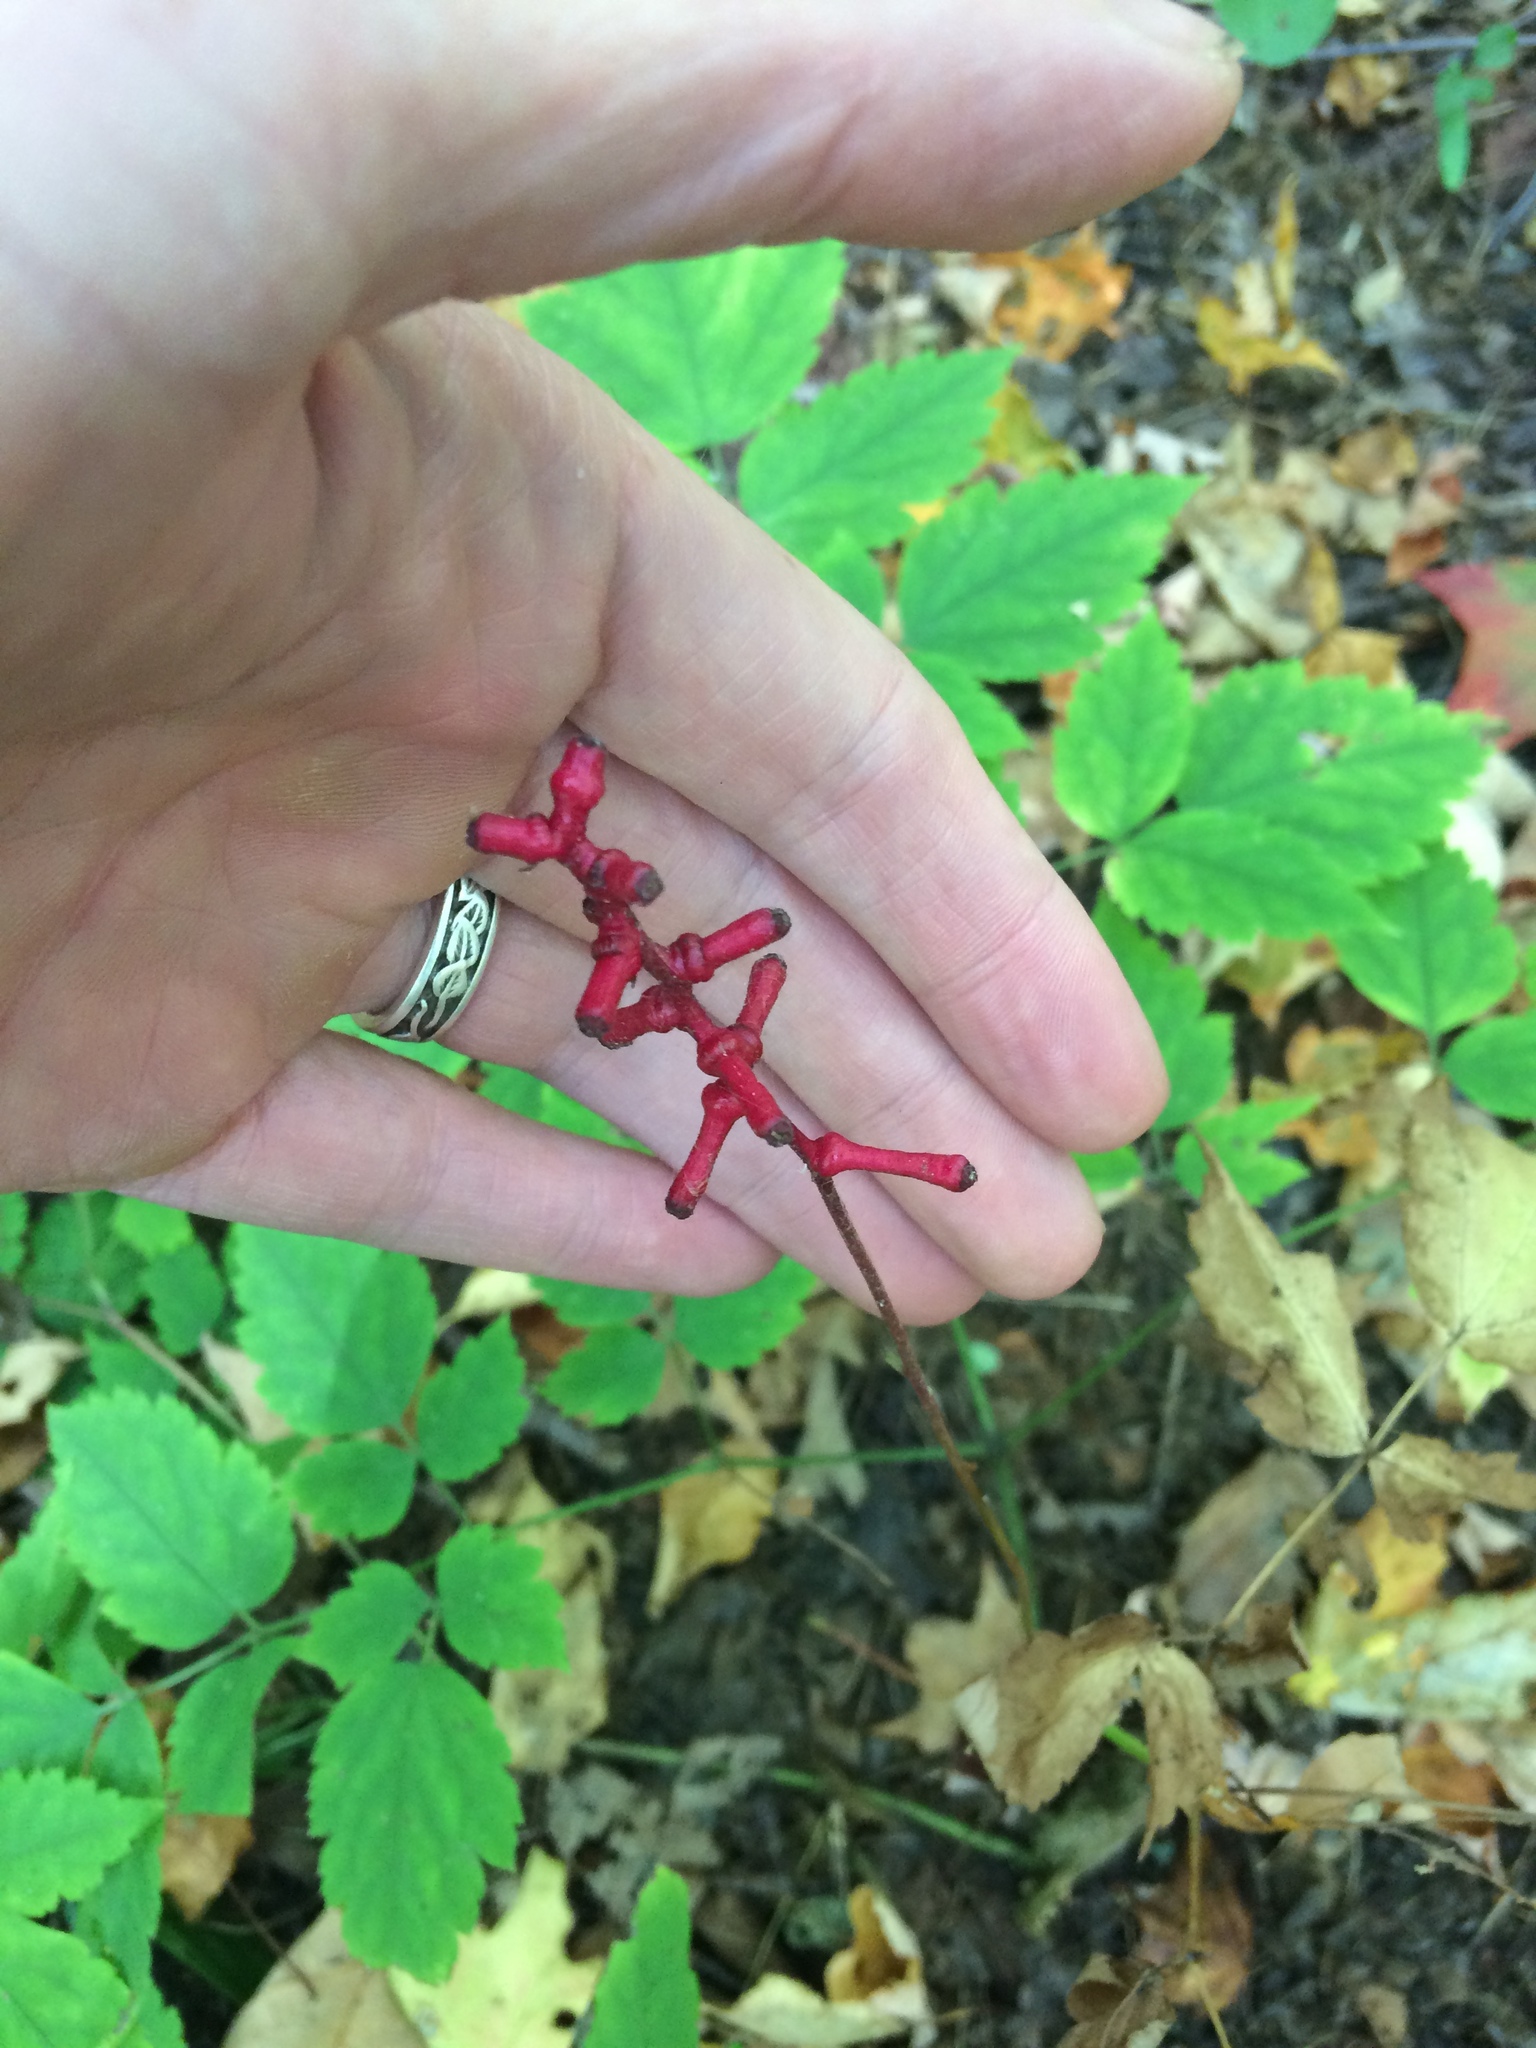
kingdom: Plantae
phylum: Tracheophyta
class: Magnoliopsida
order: Ranunculales
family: Ranunculaceae
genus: Actaea
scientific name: Actaea pachypoda
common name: Doll's-eyes
